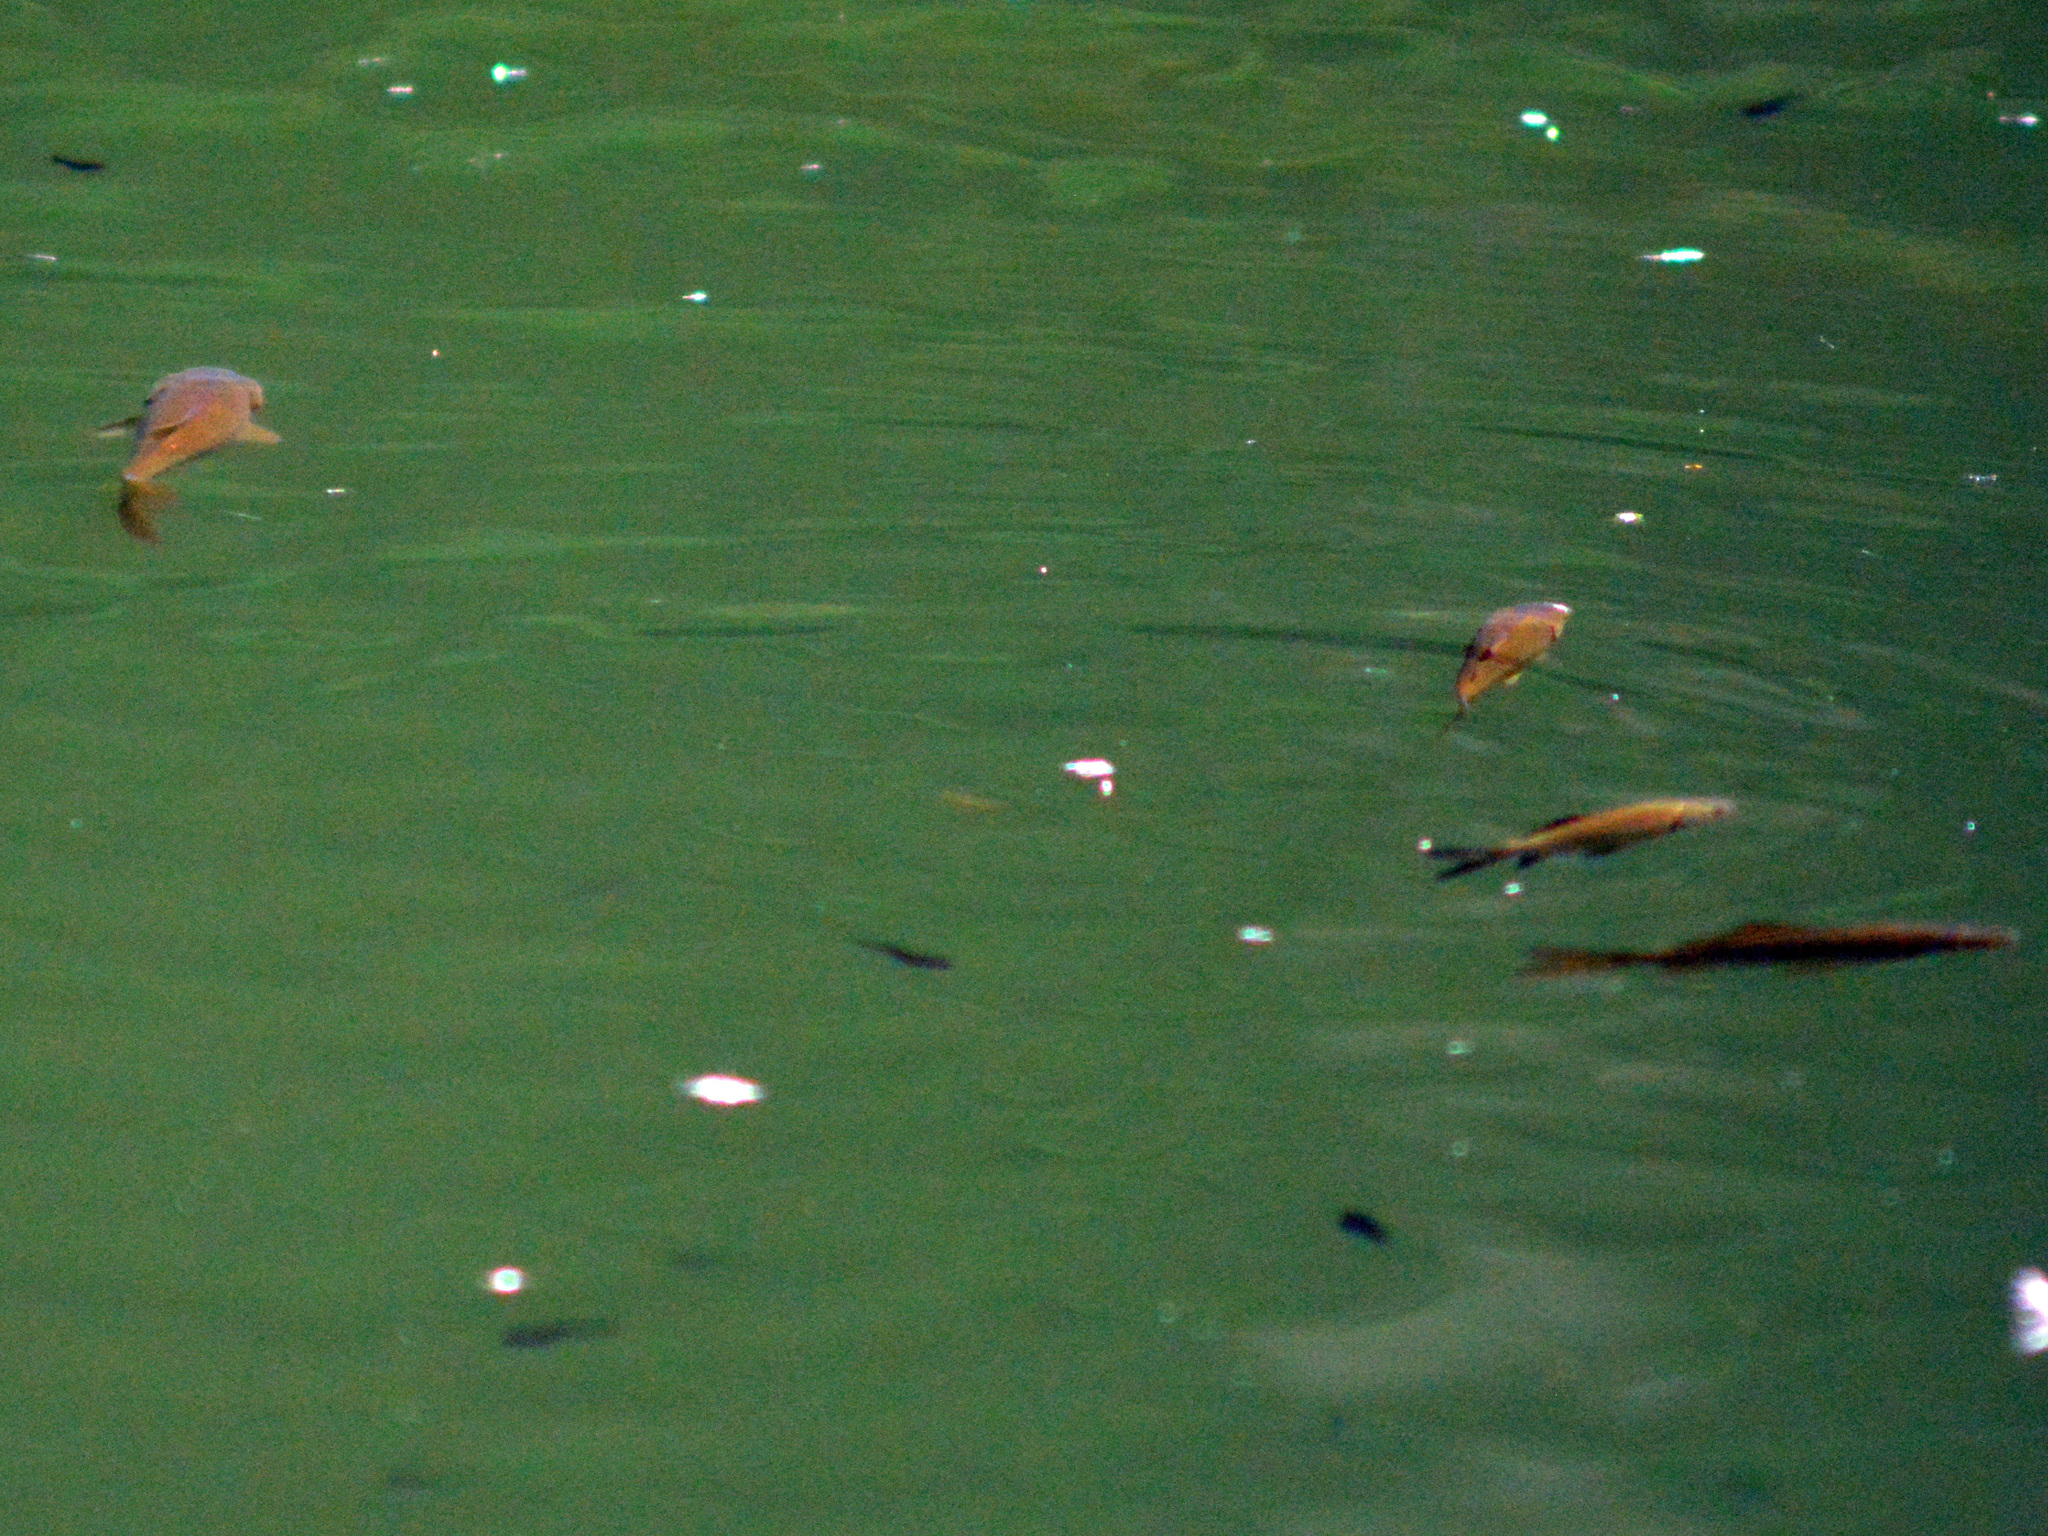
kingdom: Animalia
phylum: Chordata
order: Cypriniformes
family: Cyprinidae
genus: Carassius
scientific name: Carassius gibelio
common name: Prussian carp
